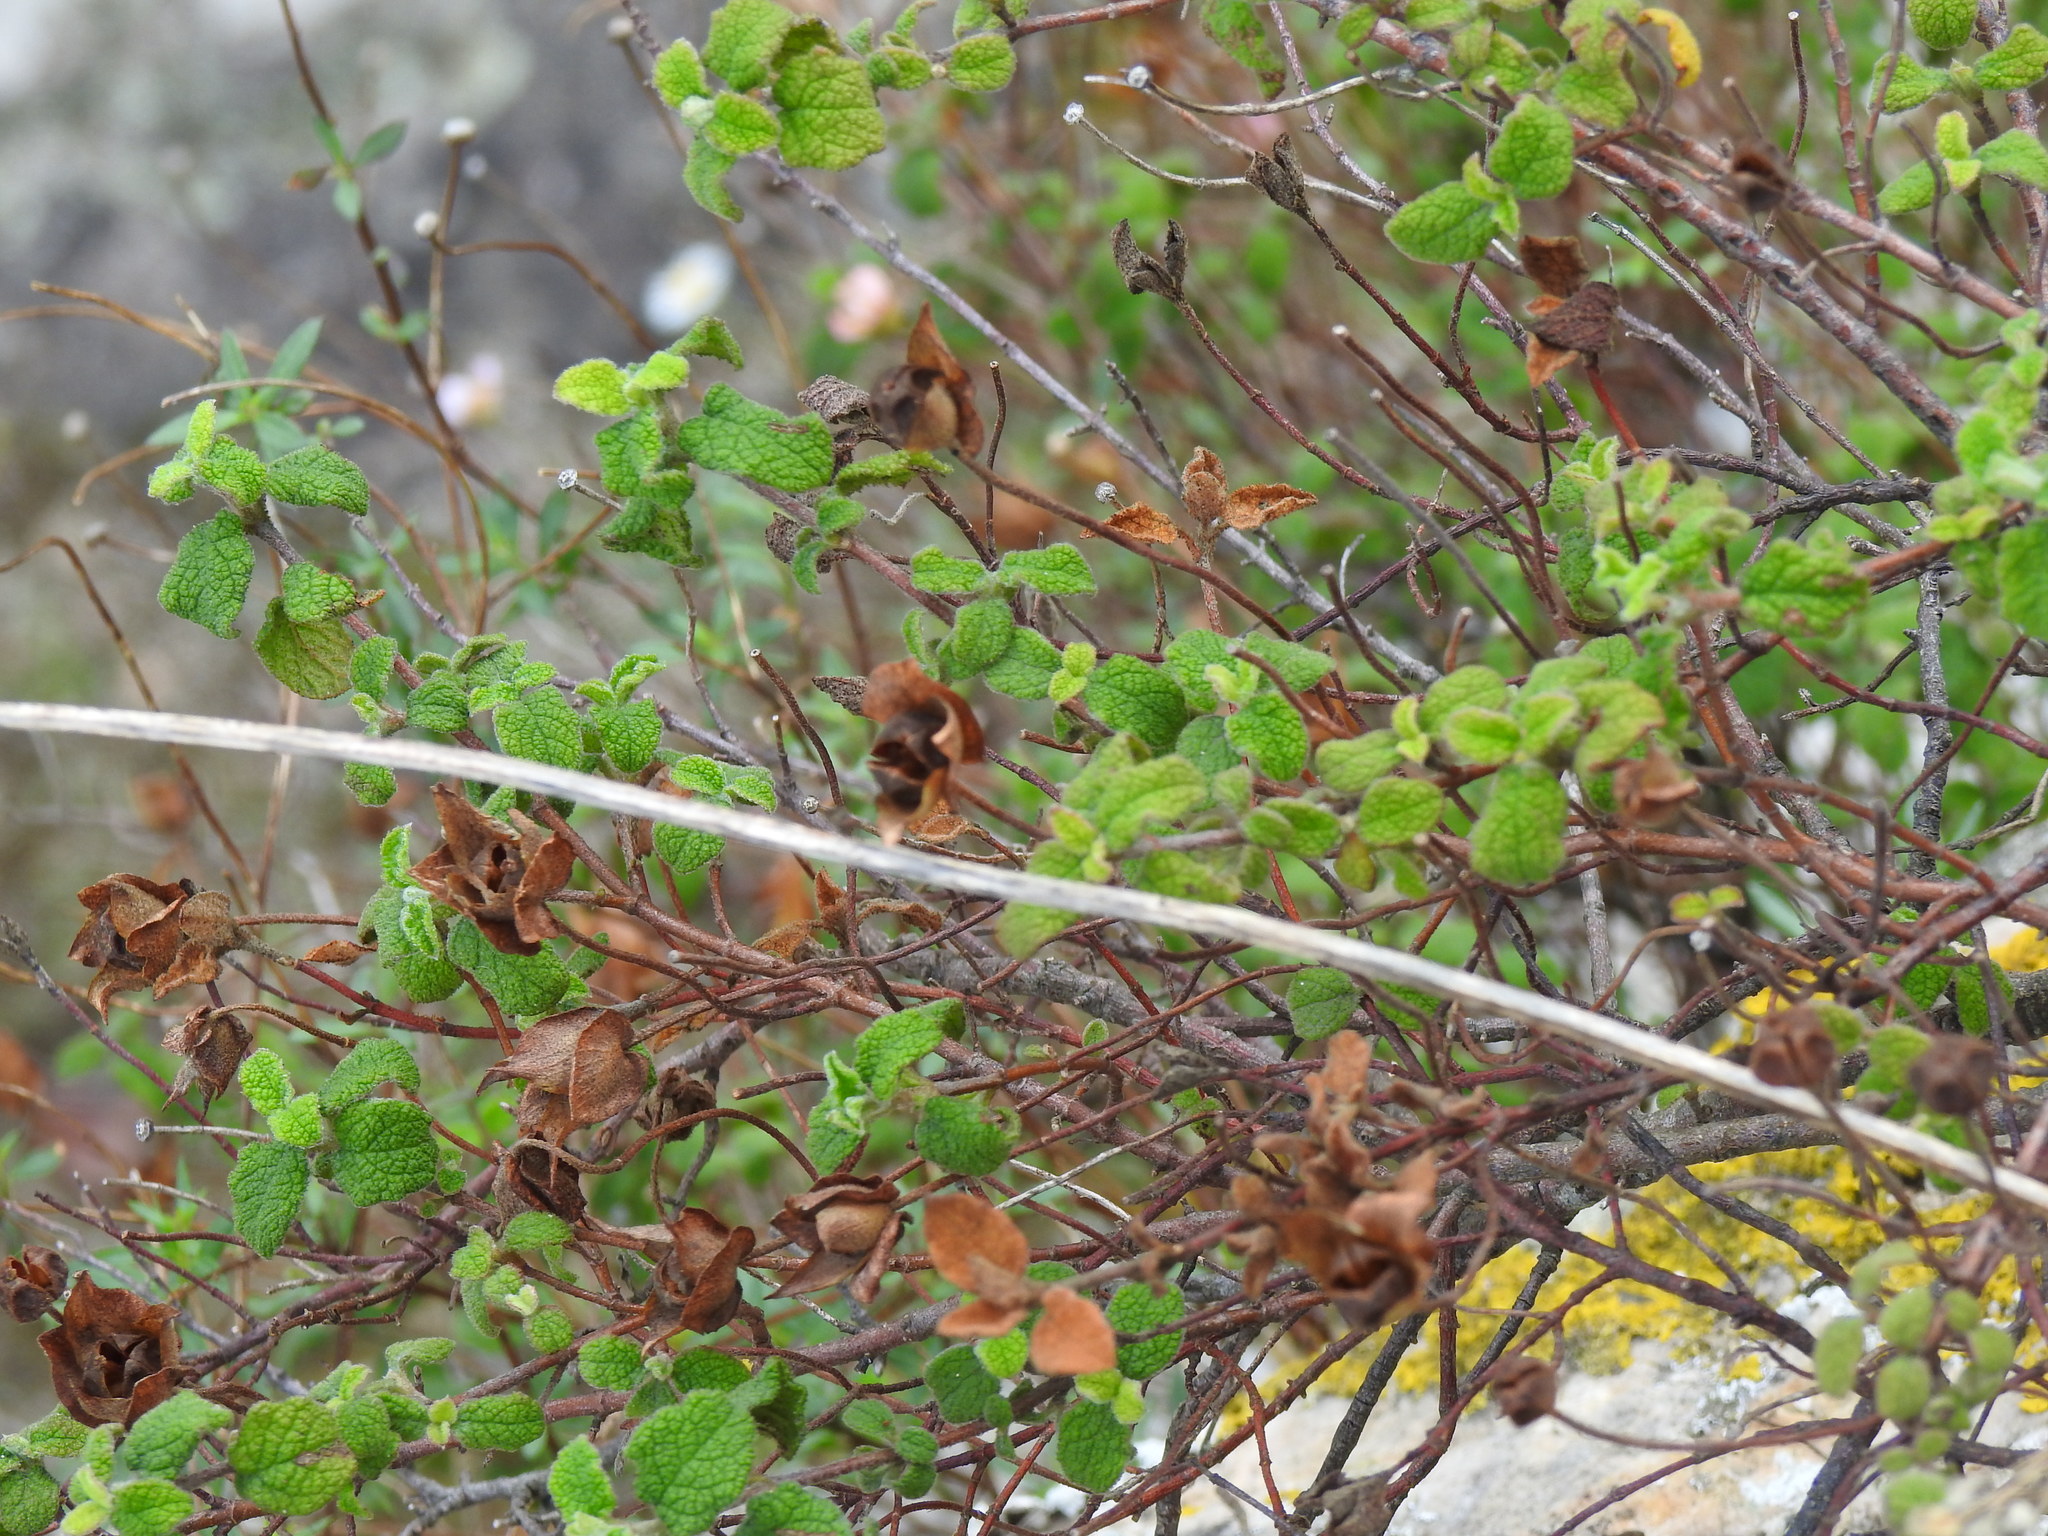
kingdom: Plantae
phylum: Tracheophyta
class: Magnoliopsida
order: Malvales
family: Cistaceae
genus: Cistus
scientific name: Cistus salviifolius
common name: Salvia cistus
